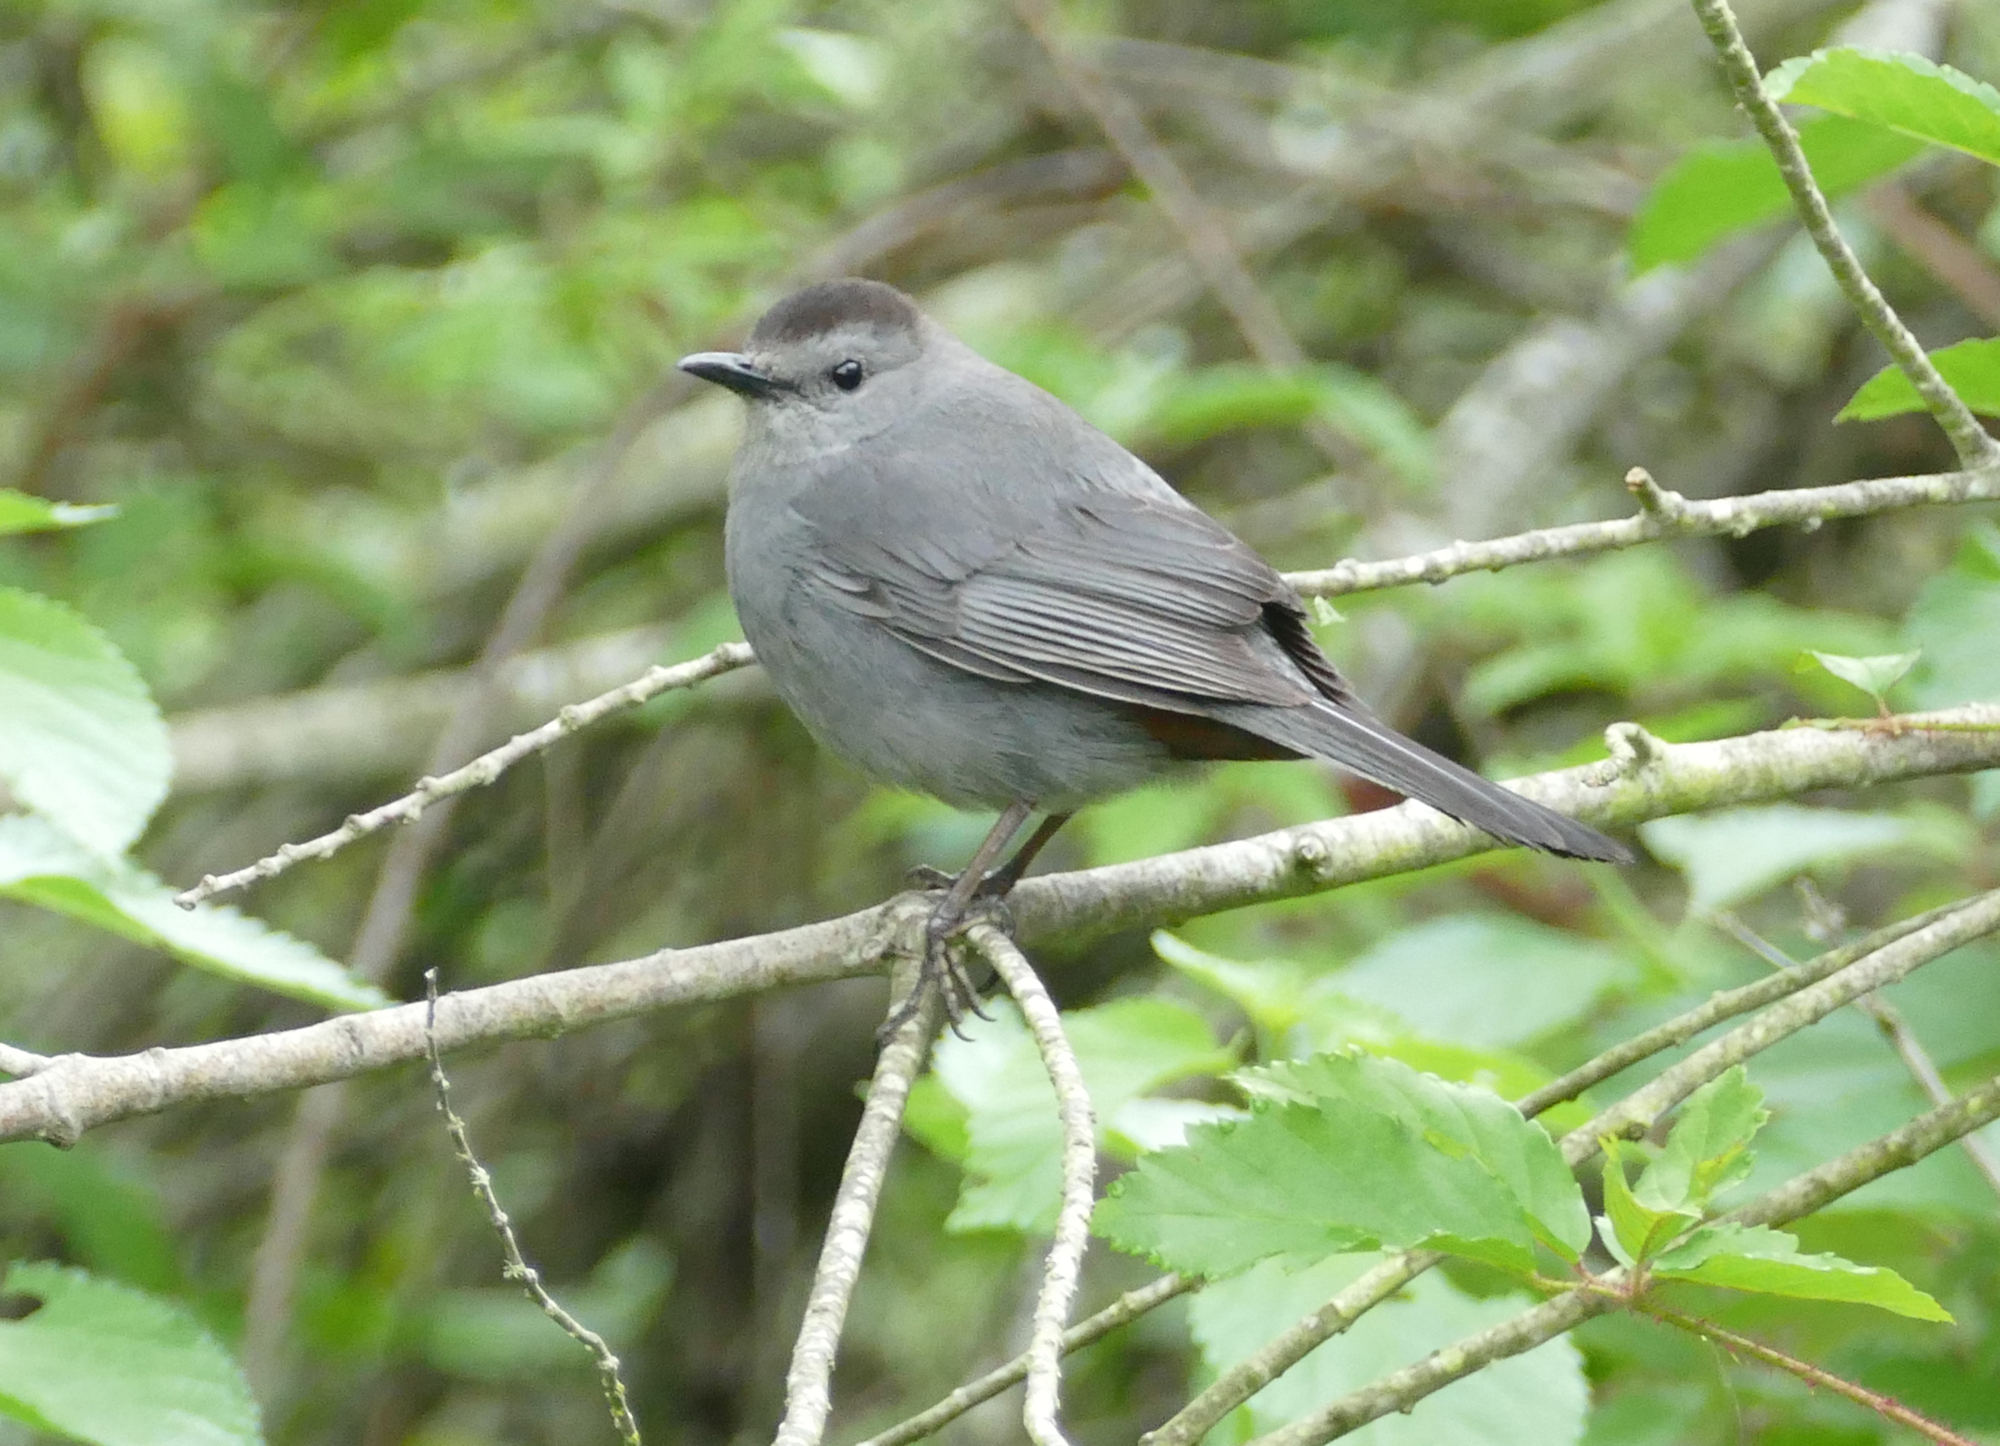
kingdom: Animalia
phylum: Chordata
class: Aves
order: Passeriformes
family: Mimidae
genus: Dumetella
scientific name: Dumetella carolinensis
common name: Gray catbird
